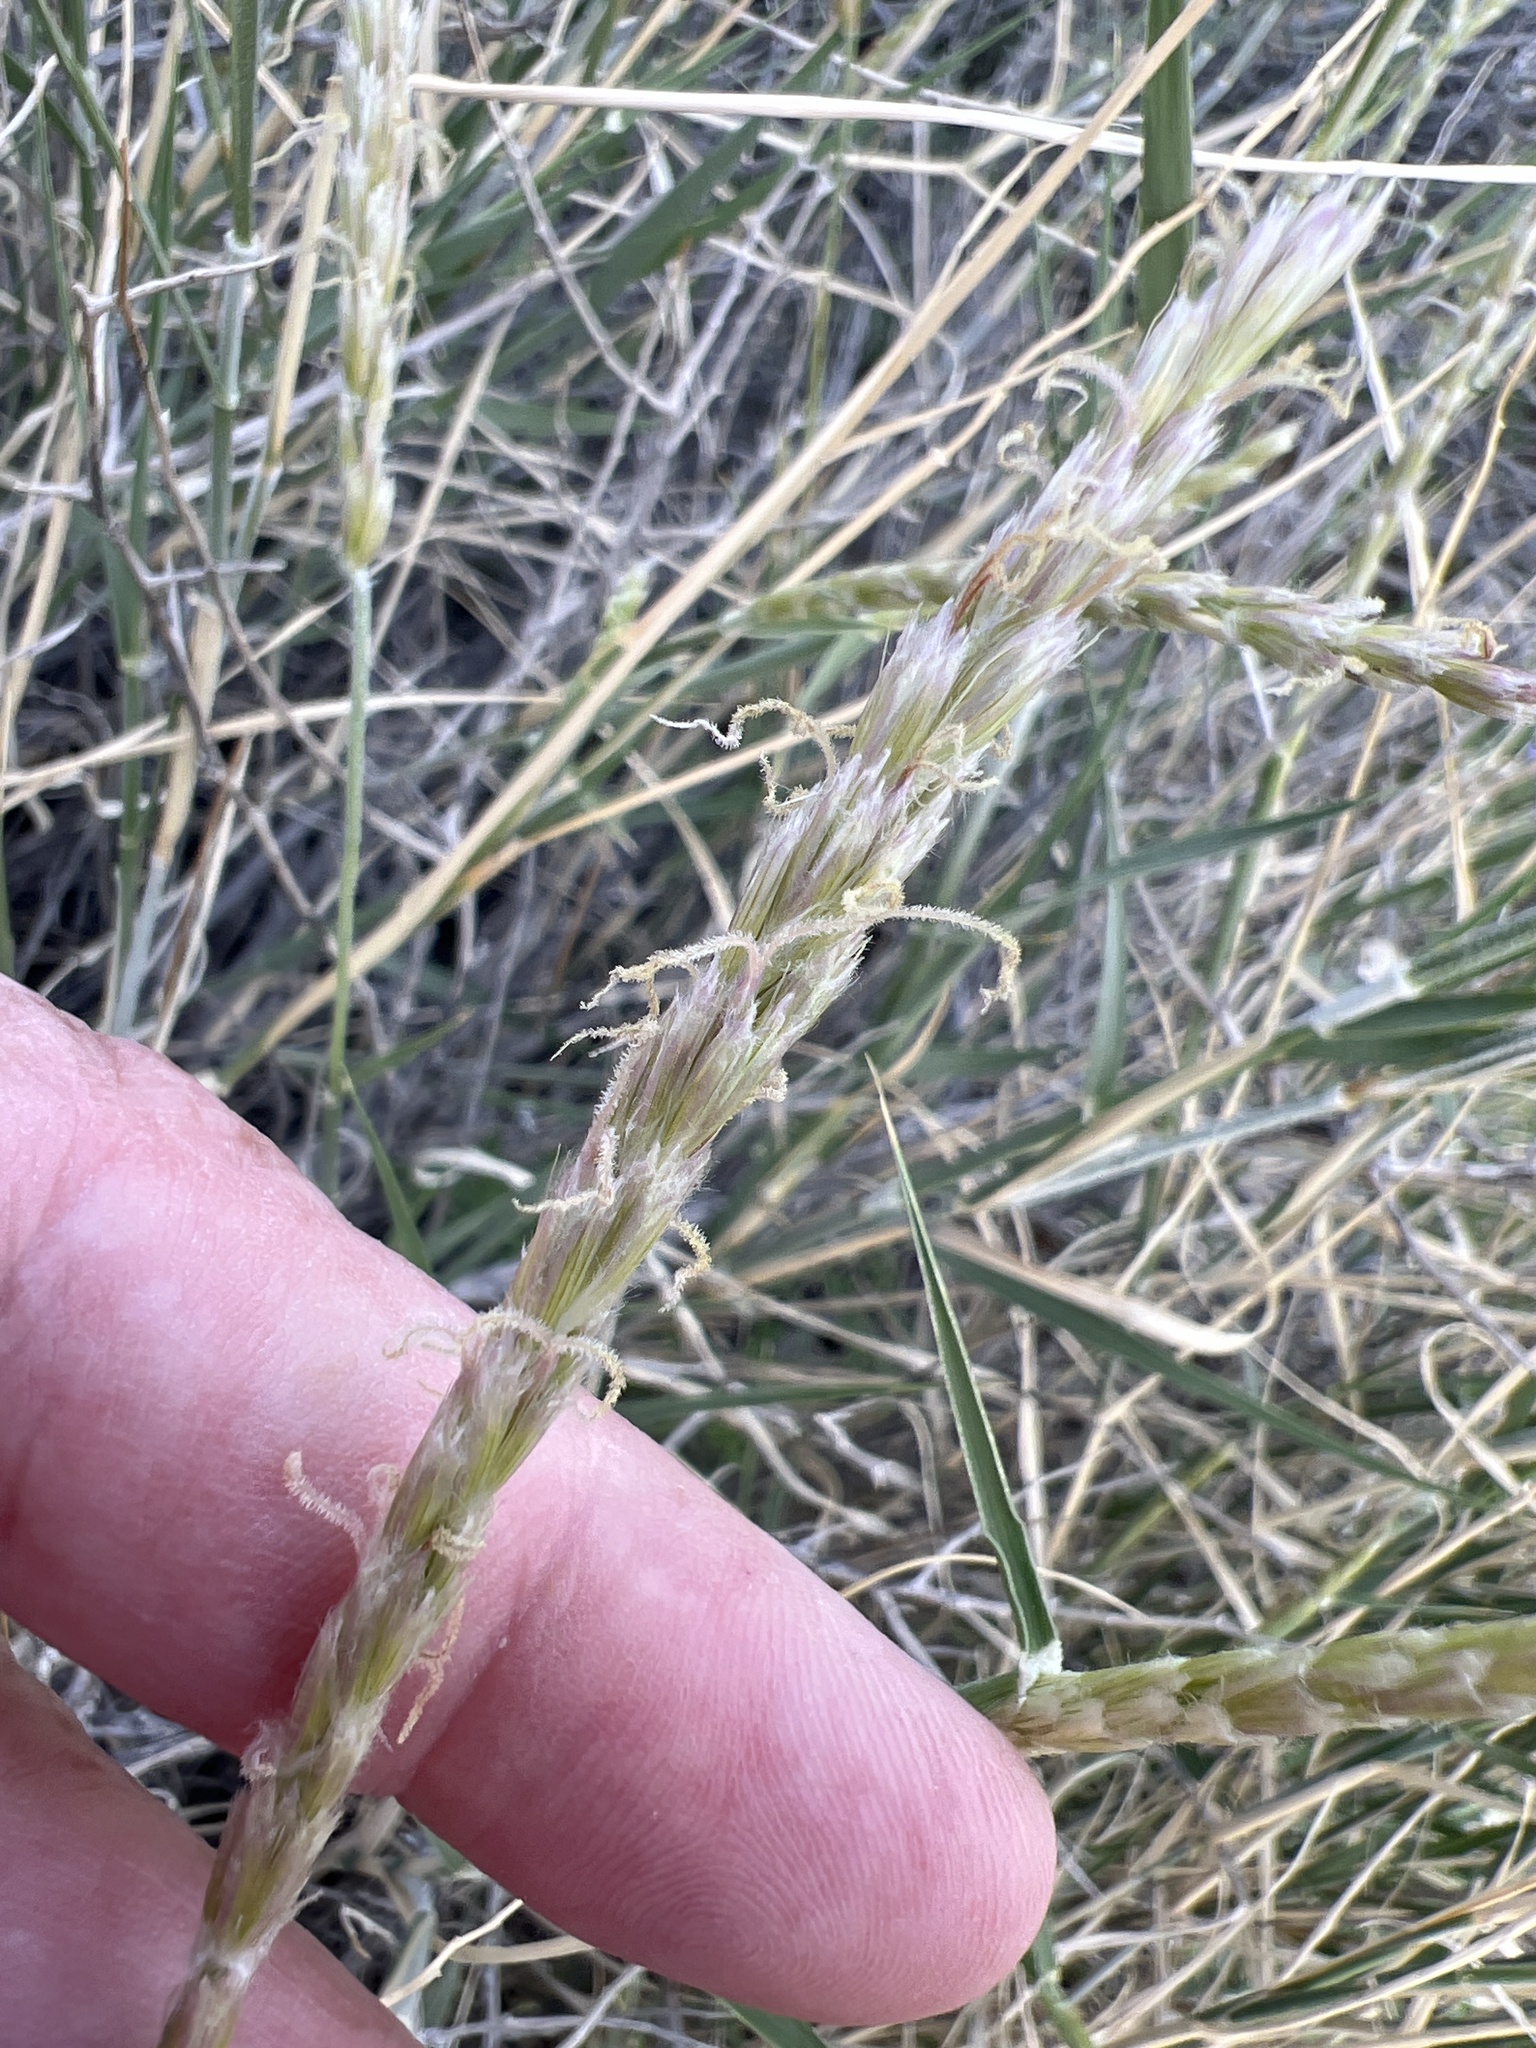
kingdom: Plantae
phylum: Tracheophyta
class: Liliopsida
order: Poales
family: Poaceae
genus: Hilaria
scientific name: Hilaria rigida
